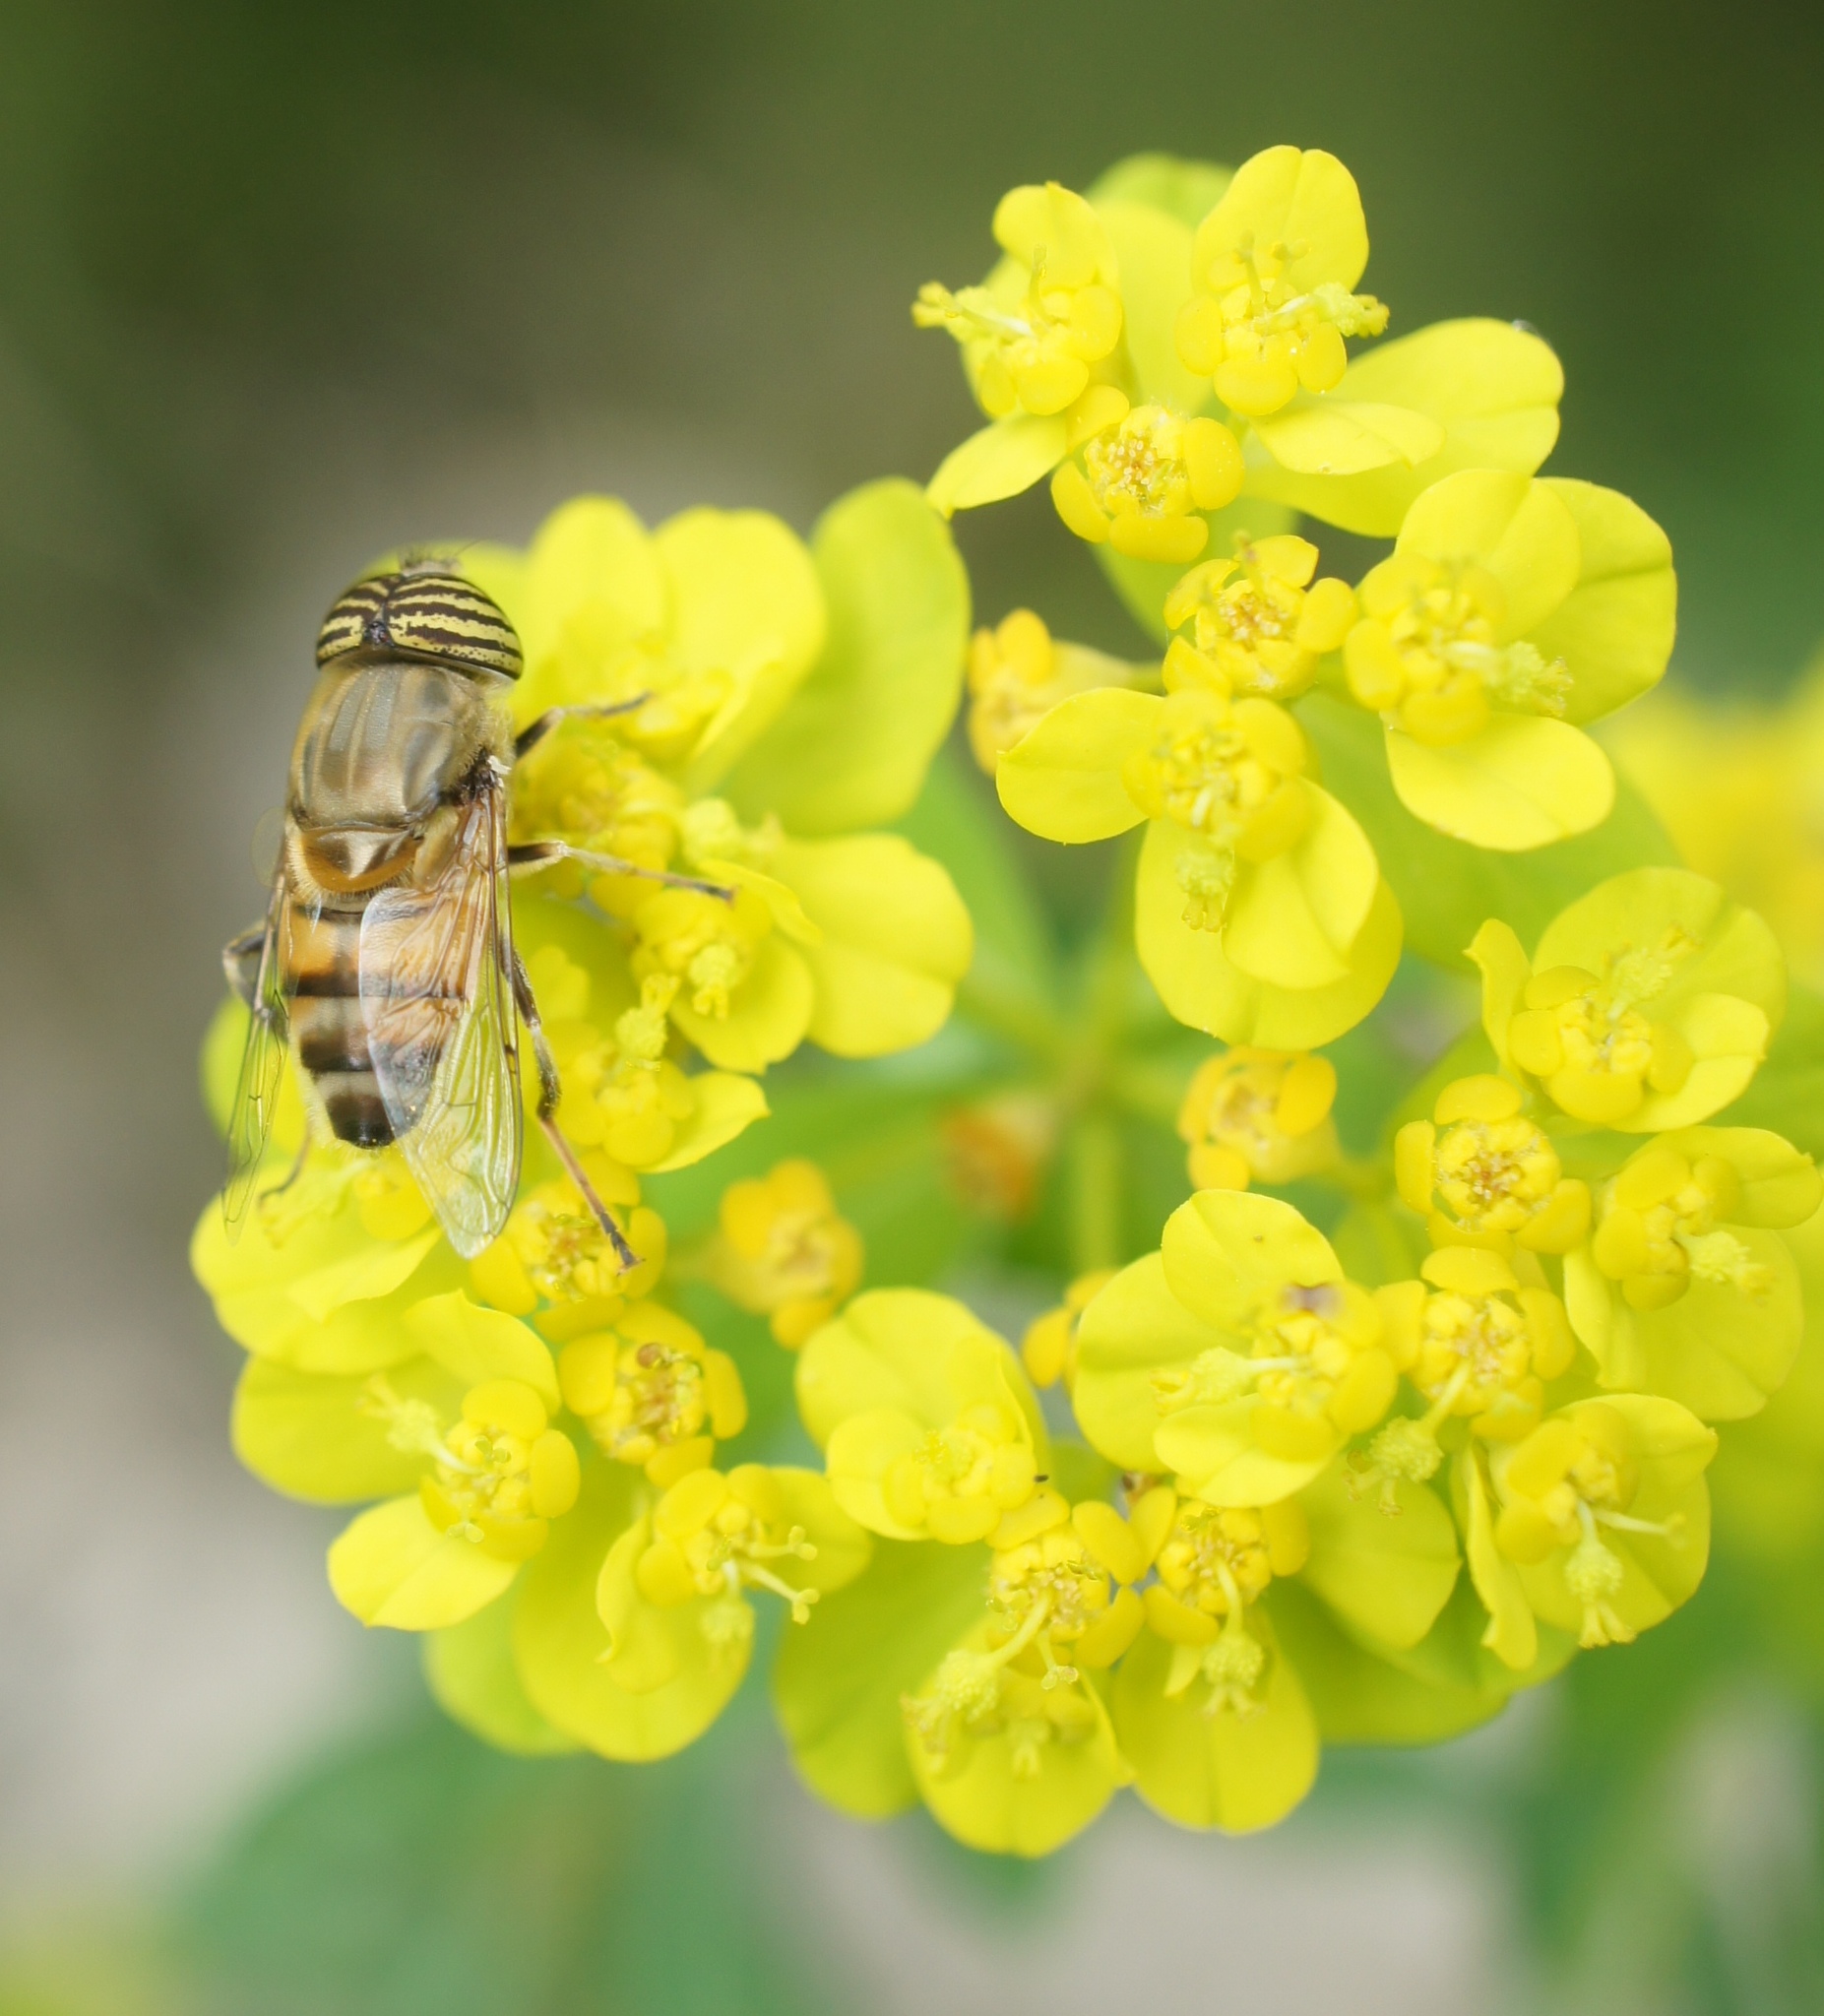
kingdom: Animalia
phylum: Arthropoda
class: Insecta
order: Diptera
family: Syrphidae
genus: Eristalinus
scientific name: Eristalinus taeniops
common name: Syrphid fly
